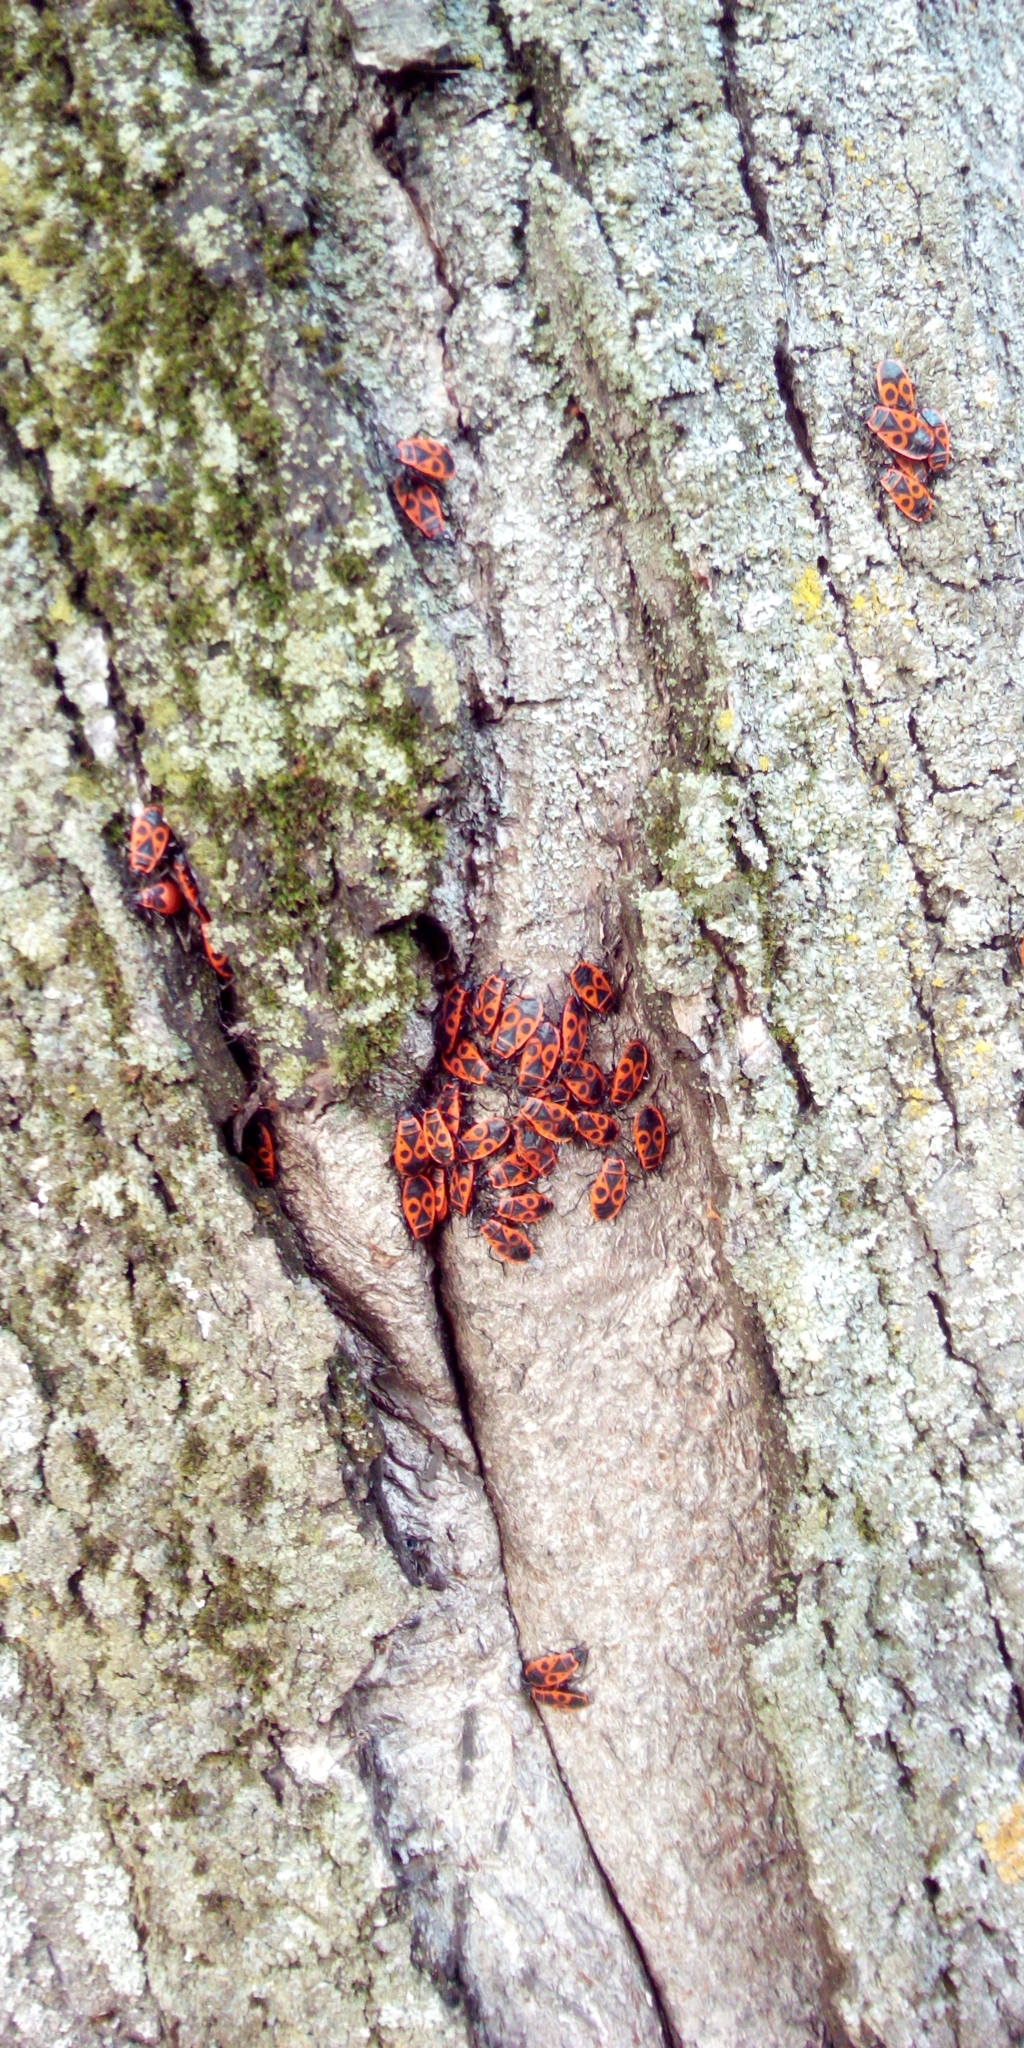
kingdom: Animalia
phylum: Arthropoda
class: Insecta
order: Hemiptera
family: Pyrrhocoridae
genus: Pyrrhocoris
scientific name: Pyrrhocoris apterus
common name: Firebug
